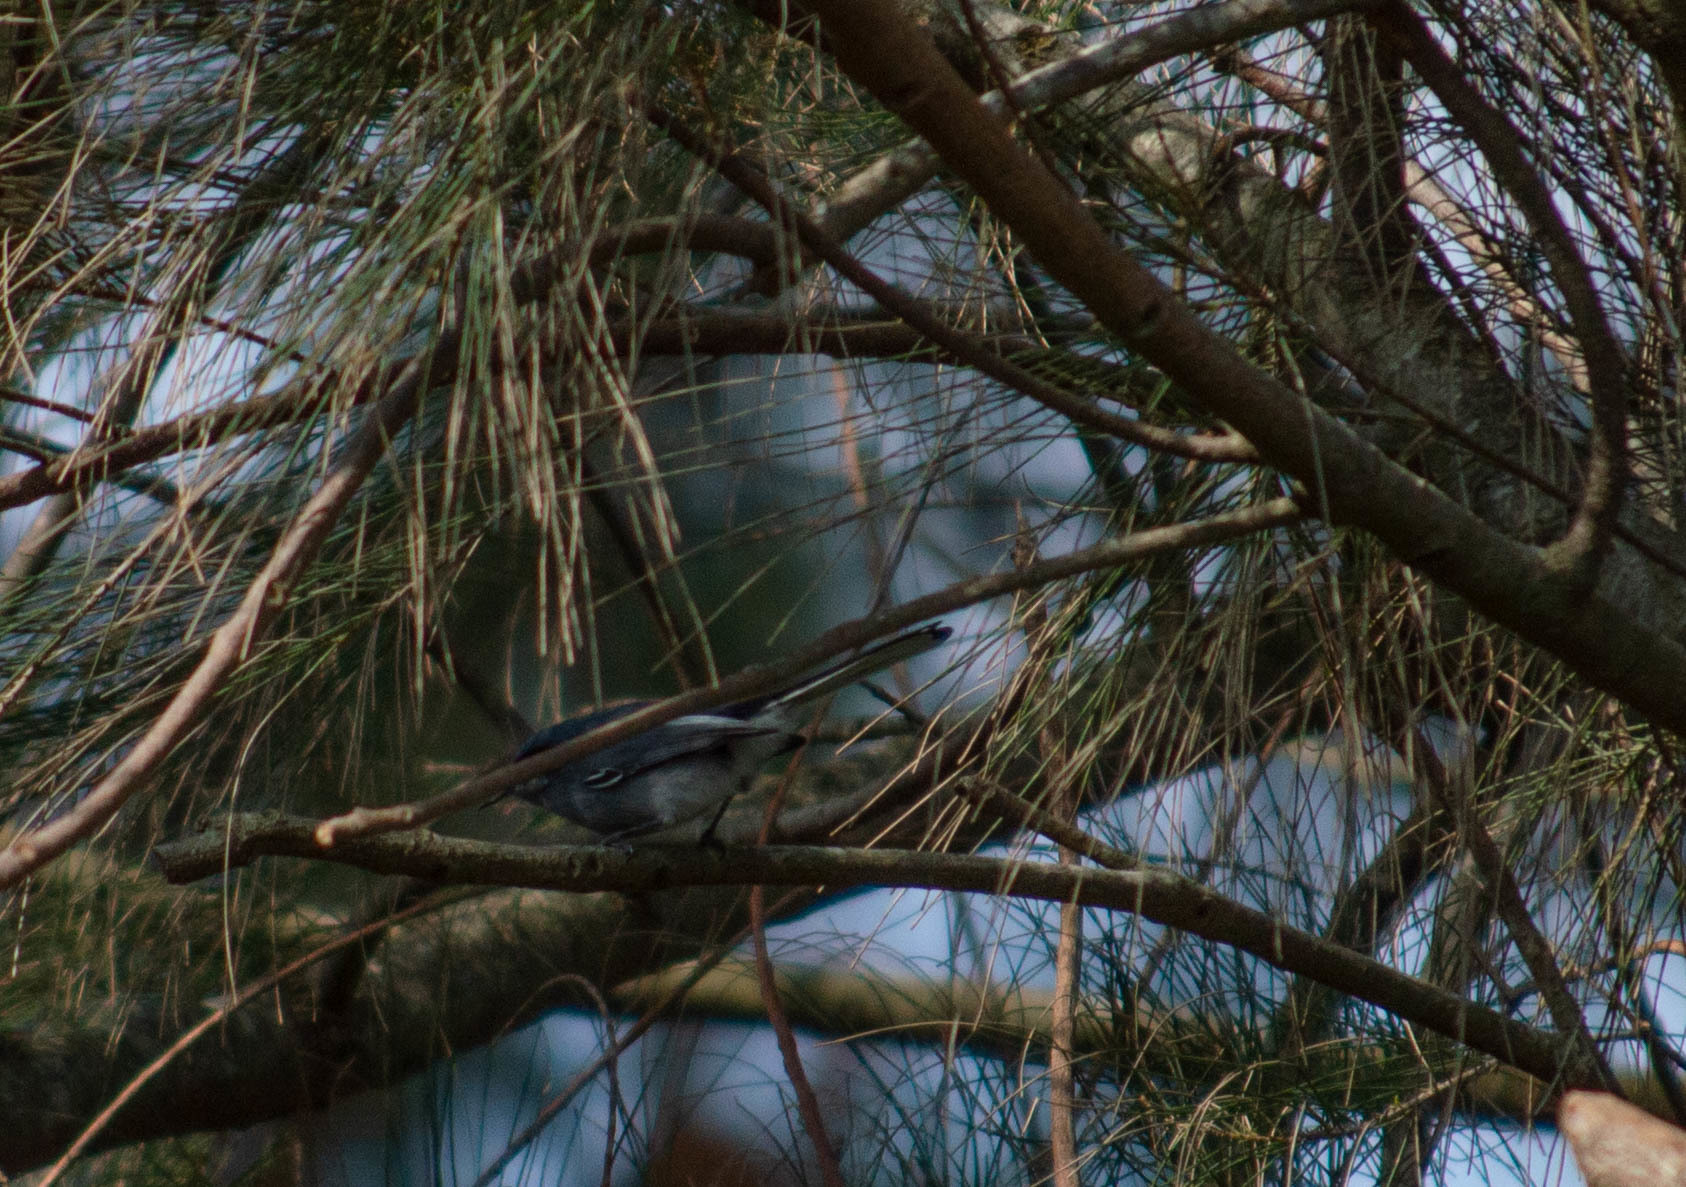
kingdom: Animalia
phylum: Chordata
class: Aves
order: Passeriformes
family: Polioptilidae
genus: Polioptila
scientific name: Polioptila dumicola
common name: Masked gnatcatcher
